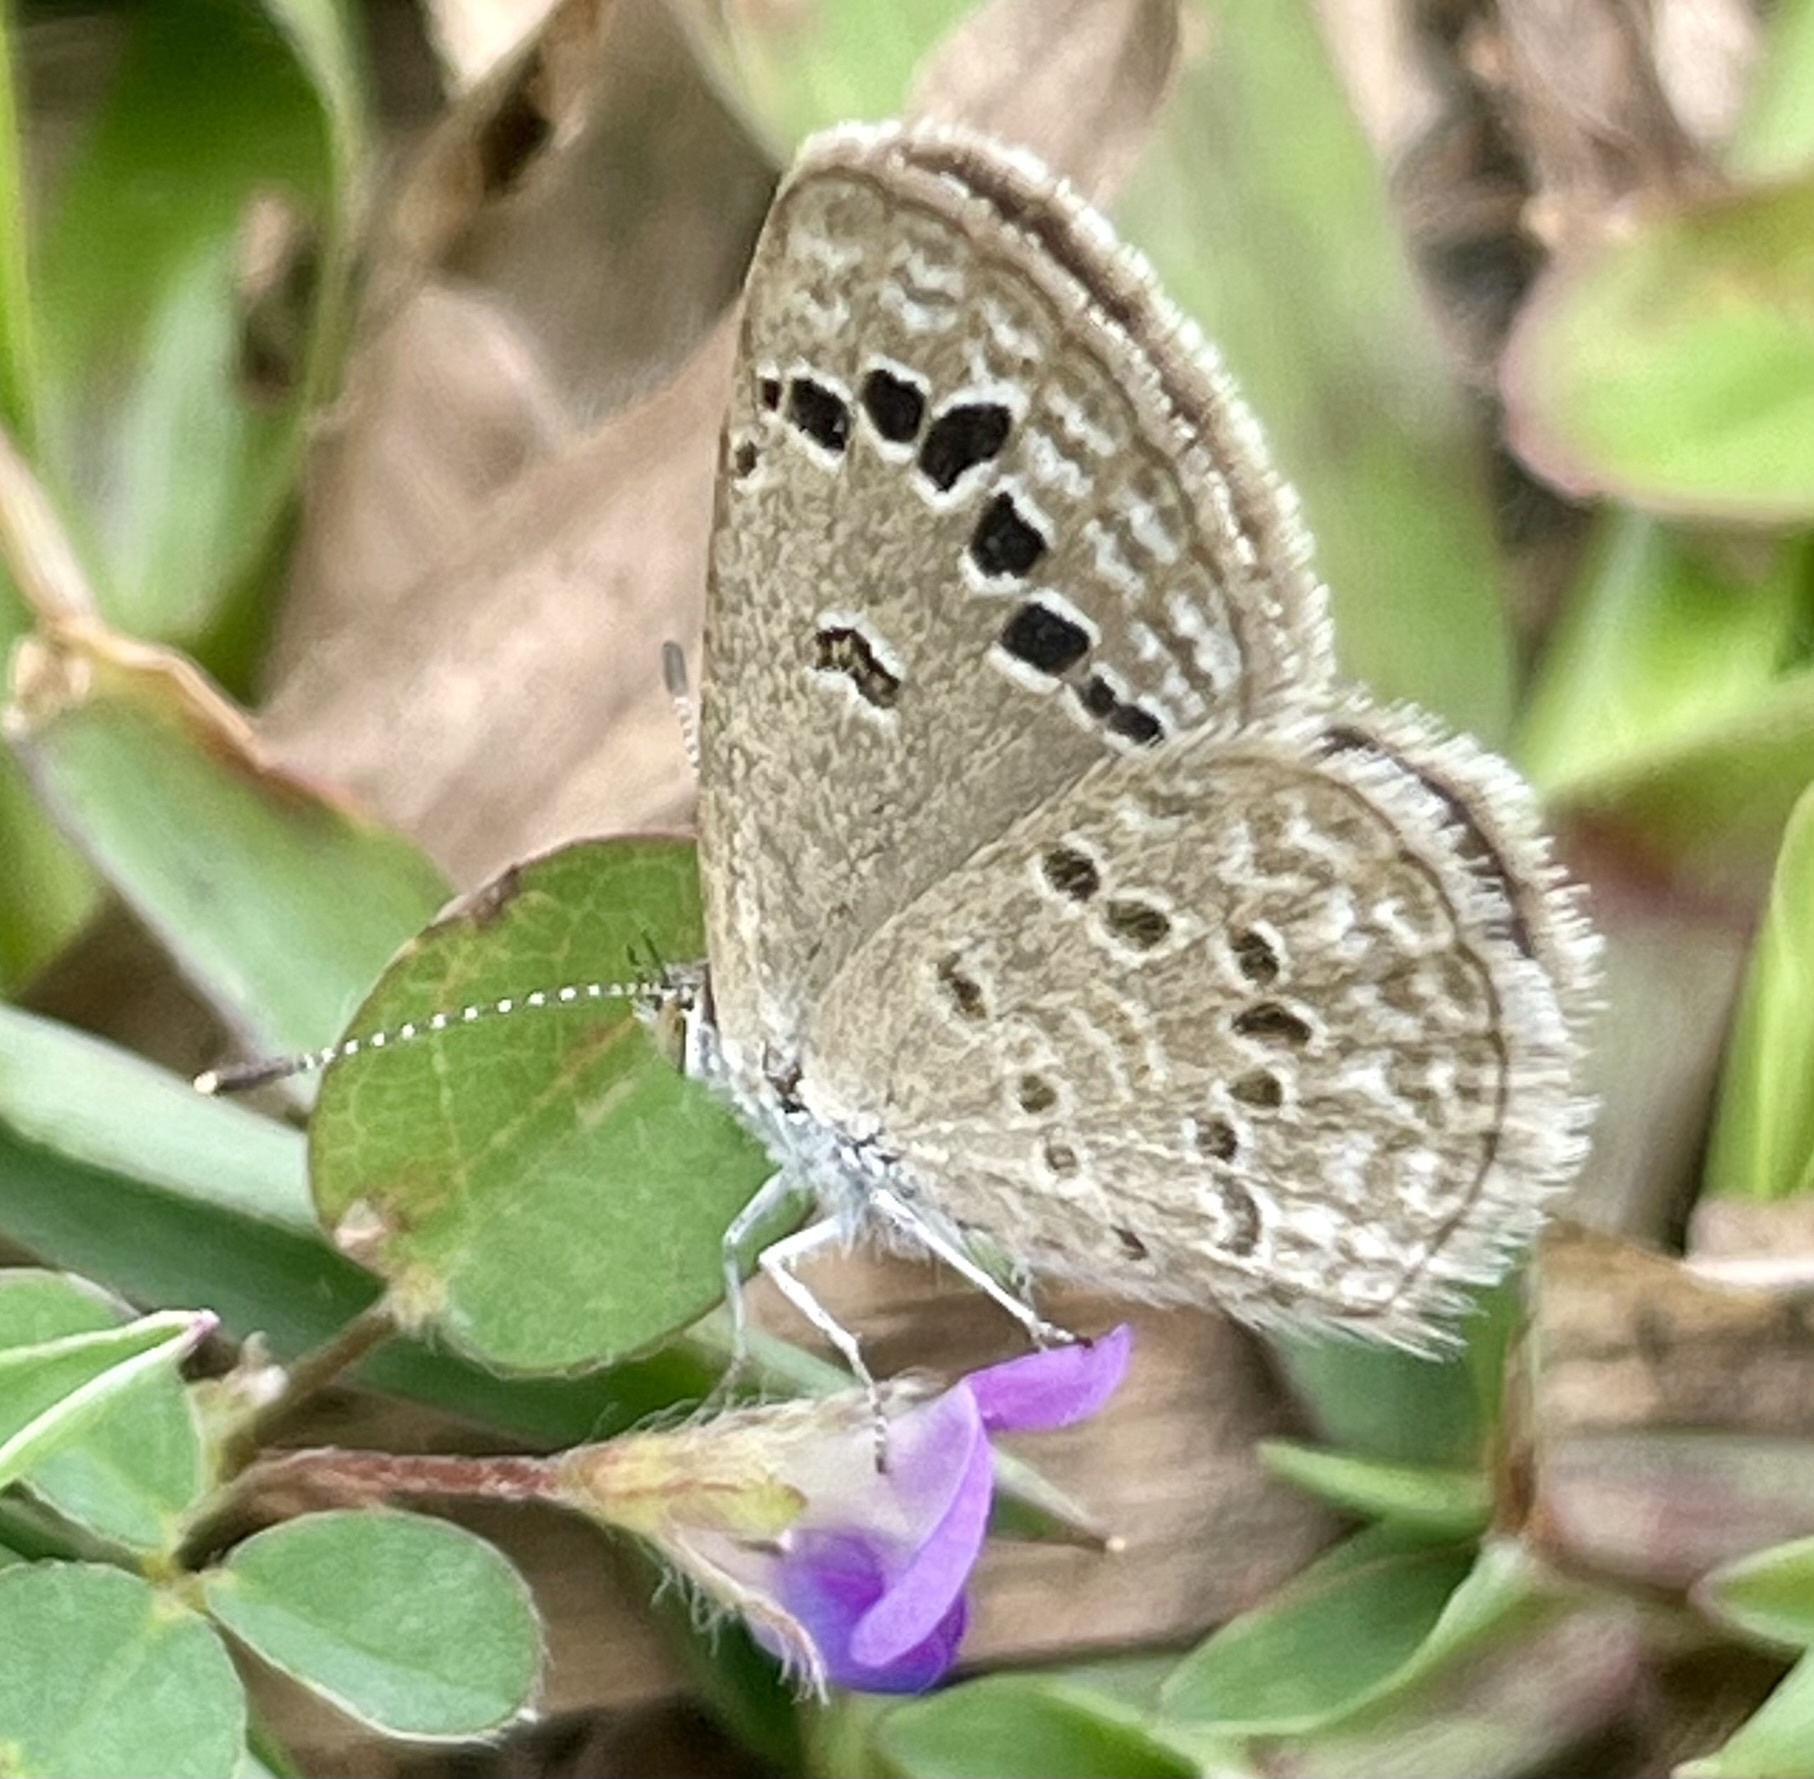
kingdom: Animalia
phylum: Arthropoda
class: Insecta
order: Lepidoptera
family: Lycaenidae
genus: Zizina
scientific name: Zizina otis
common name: Lesser grass blue
